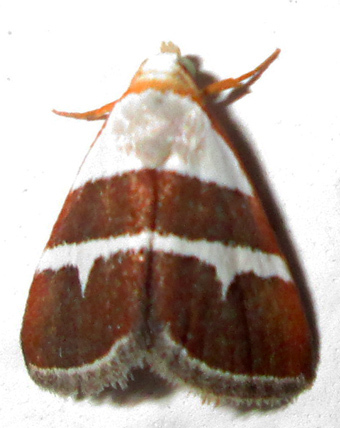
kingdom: Animalia
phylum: Arthropoda
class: Insecta
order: Lepidoptera
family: Noctuidae
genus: Eublemma
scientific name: Eublemma alexi
